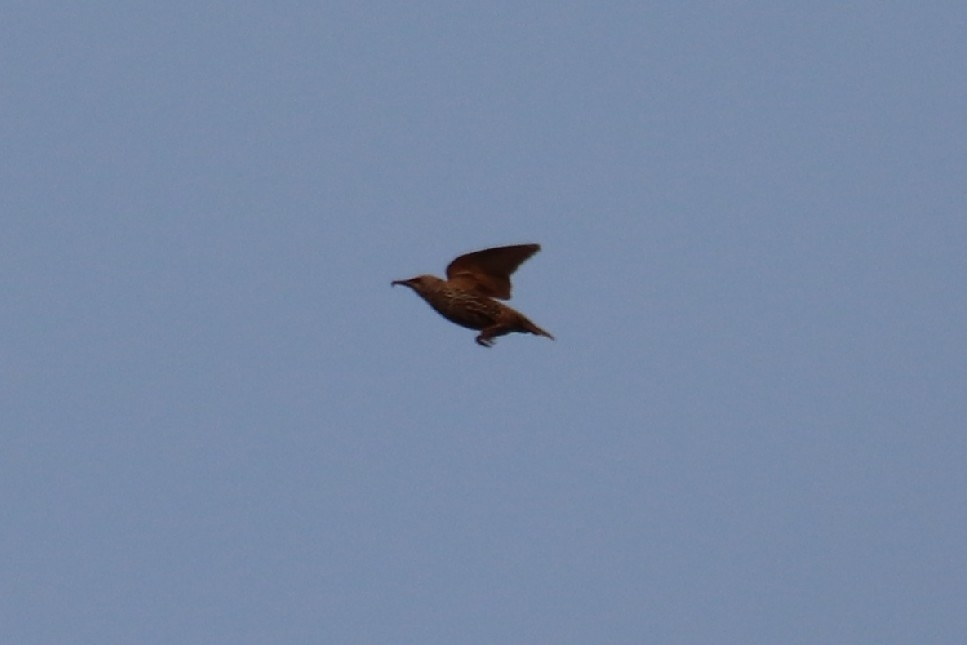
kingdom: Animalia
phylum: Chordata
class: Aves
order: Passeriformes
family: Sturnidae
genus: Sturnus
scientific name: Sturnus vulgaris
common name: Common starling
